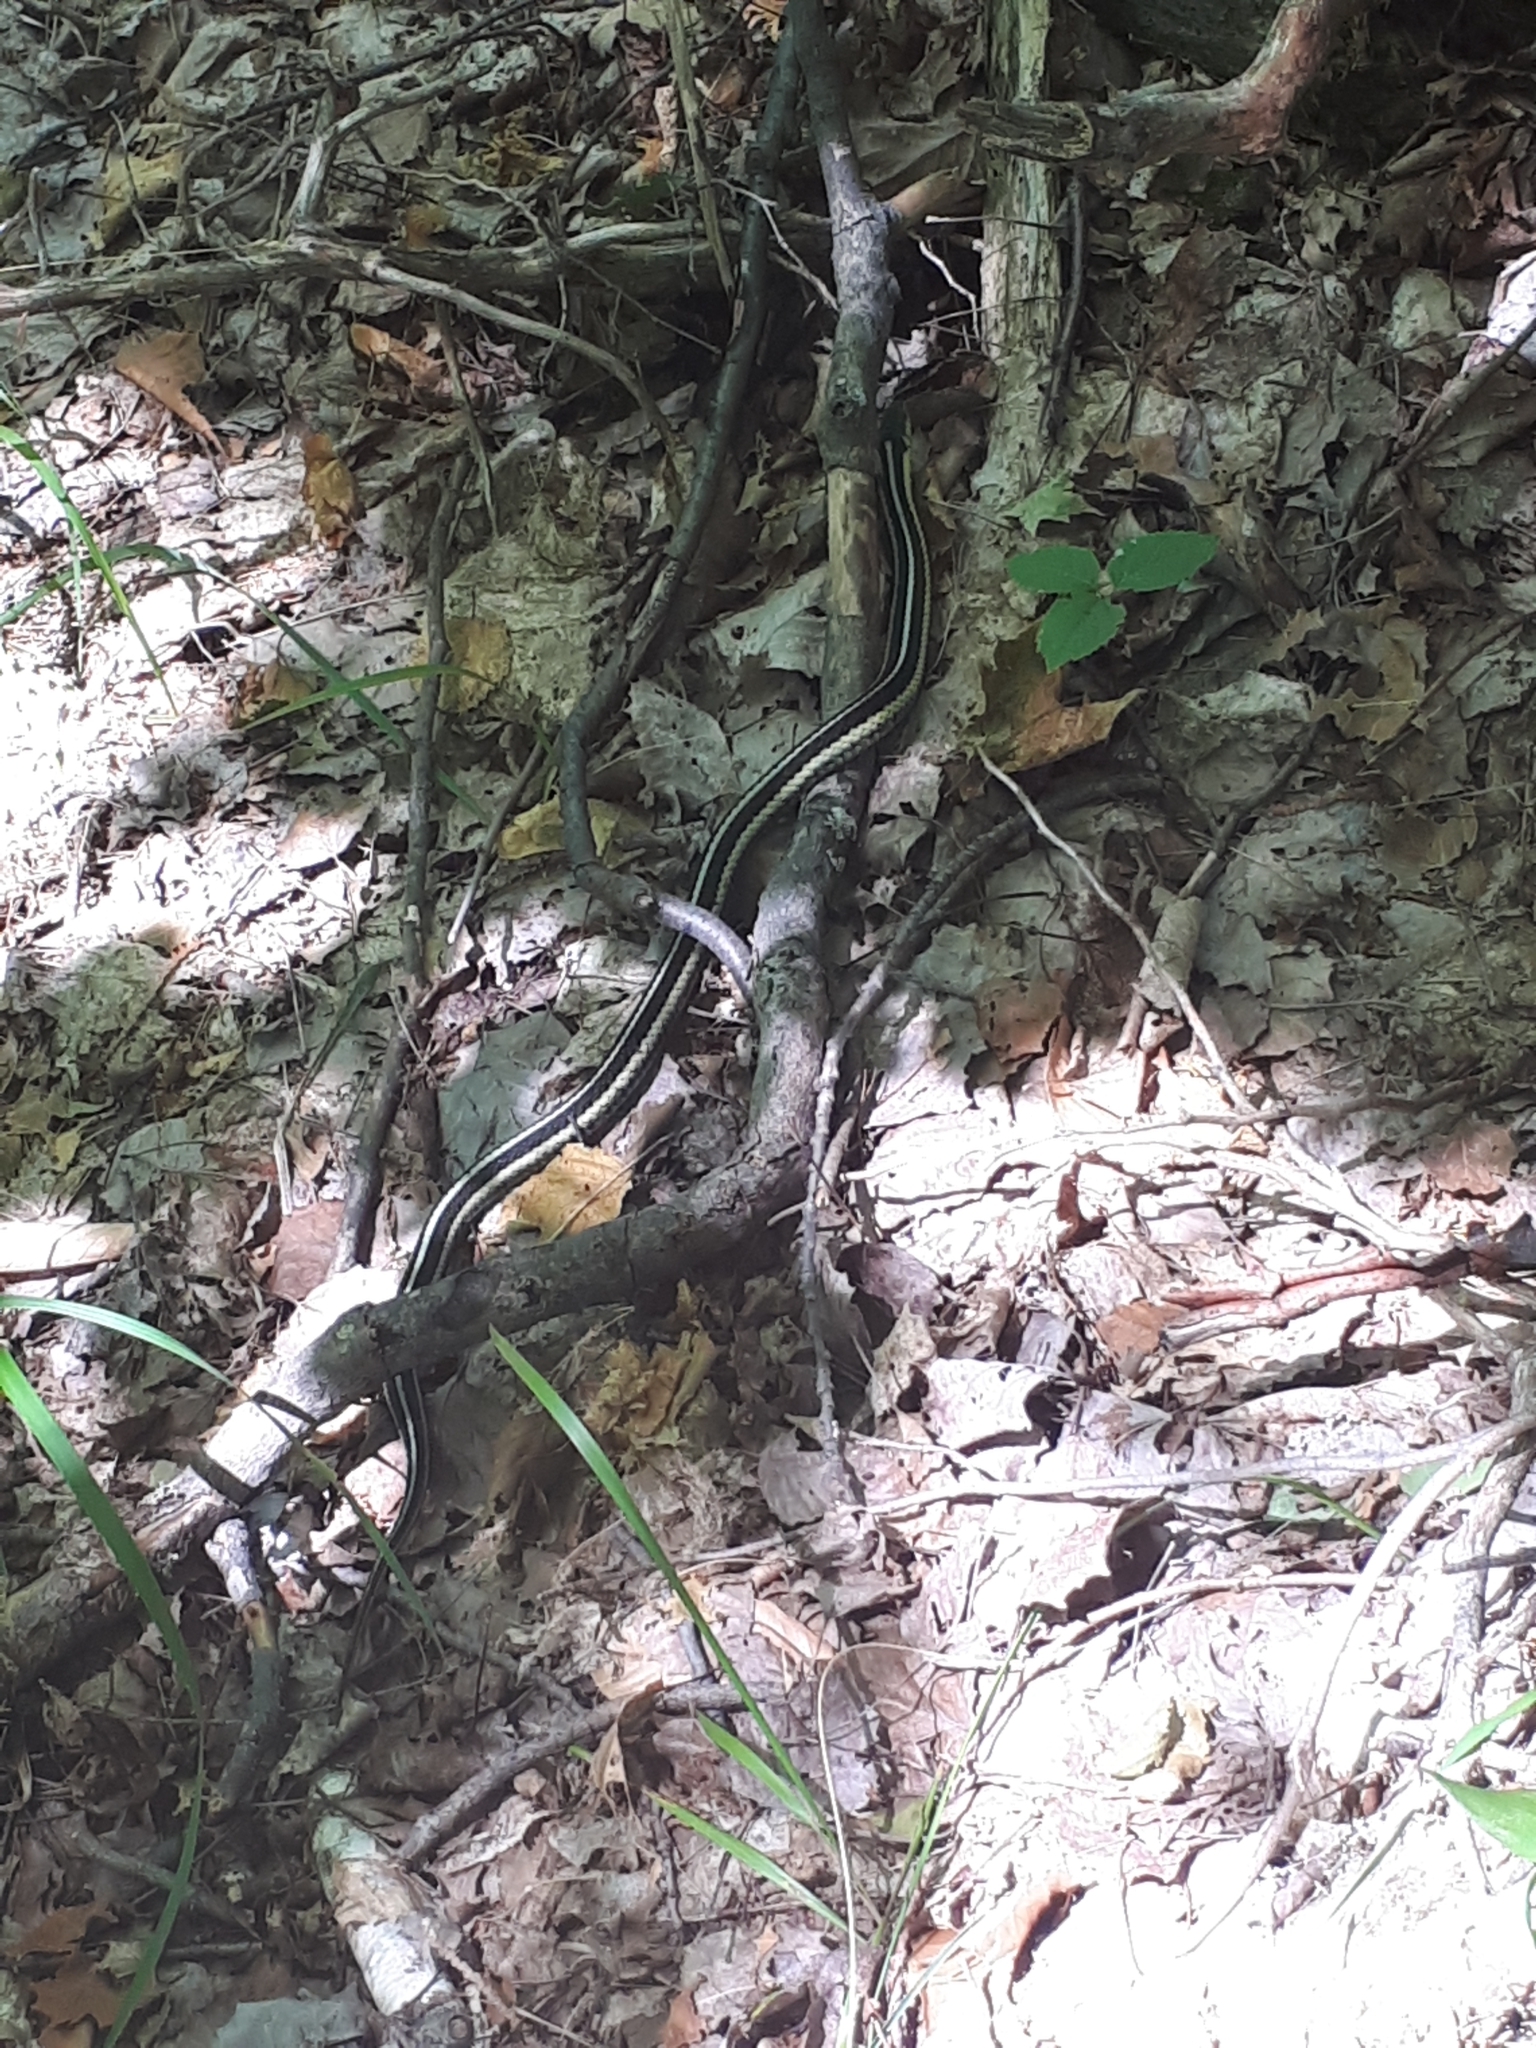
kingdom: Animalia
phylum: Chordata
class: Squamata
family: Colubridae
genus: Thamnophis
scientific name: Thamnophis sirtalis
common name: Common garter snake
